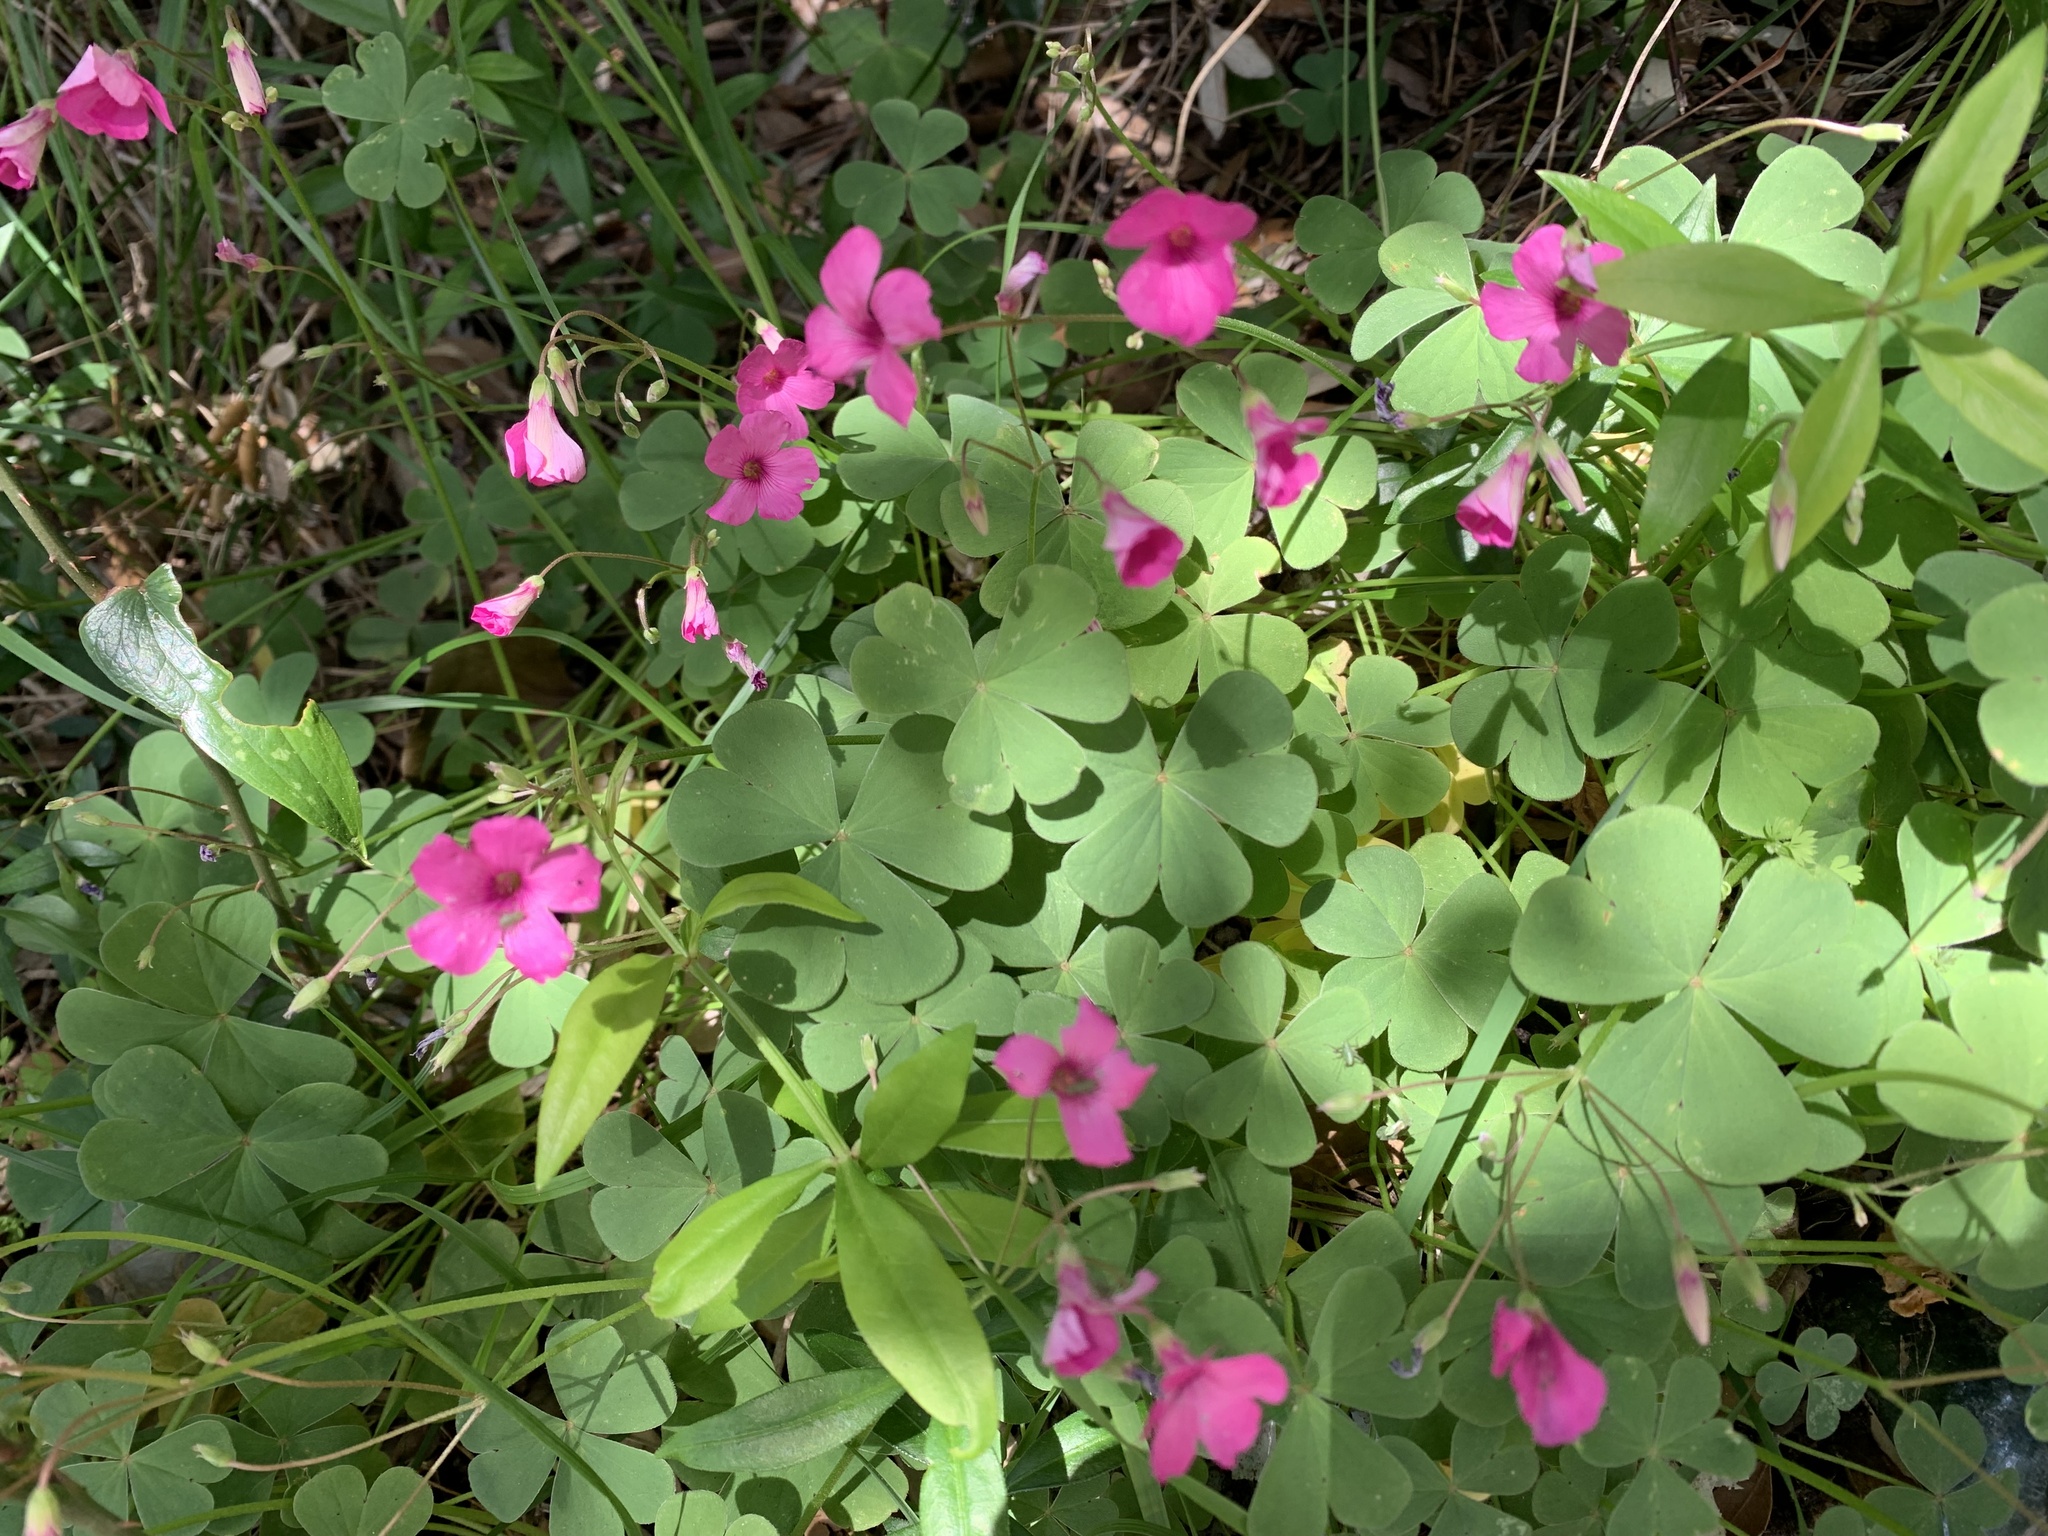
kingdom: Plantae
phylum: Tracheophyta
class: Magnoliopsida
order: Oxalidales
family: Oxalidaceae
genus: Oxalis
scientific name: Oxalis articulata
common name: Pink-sorrel
